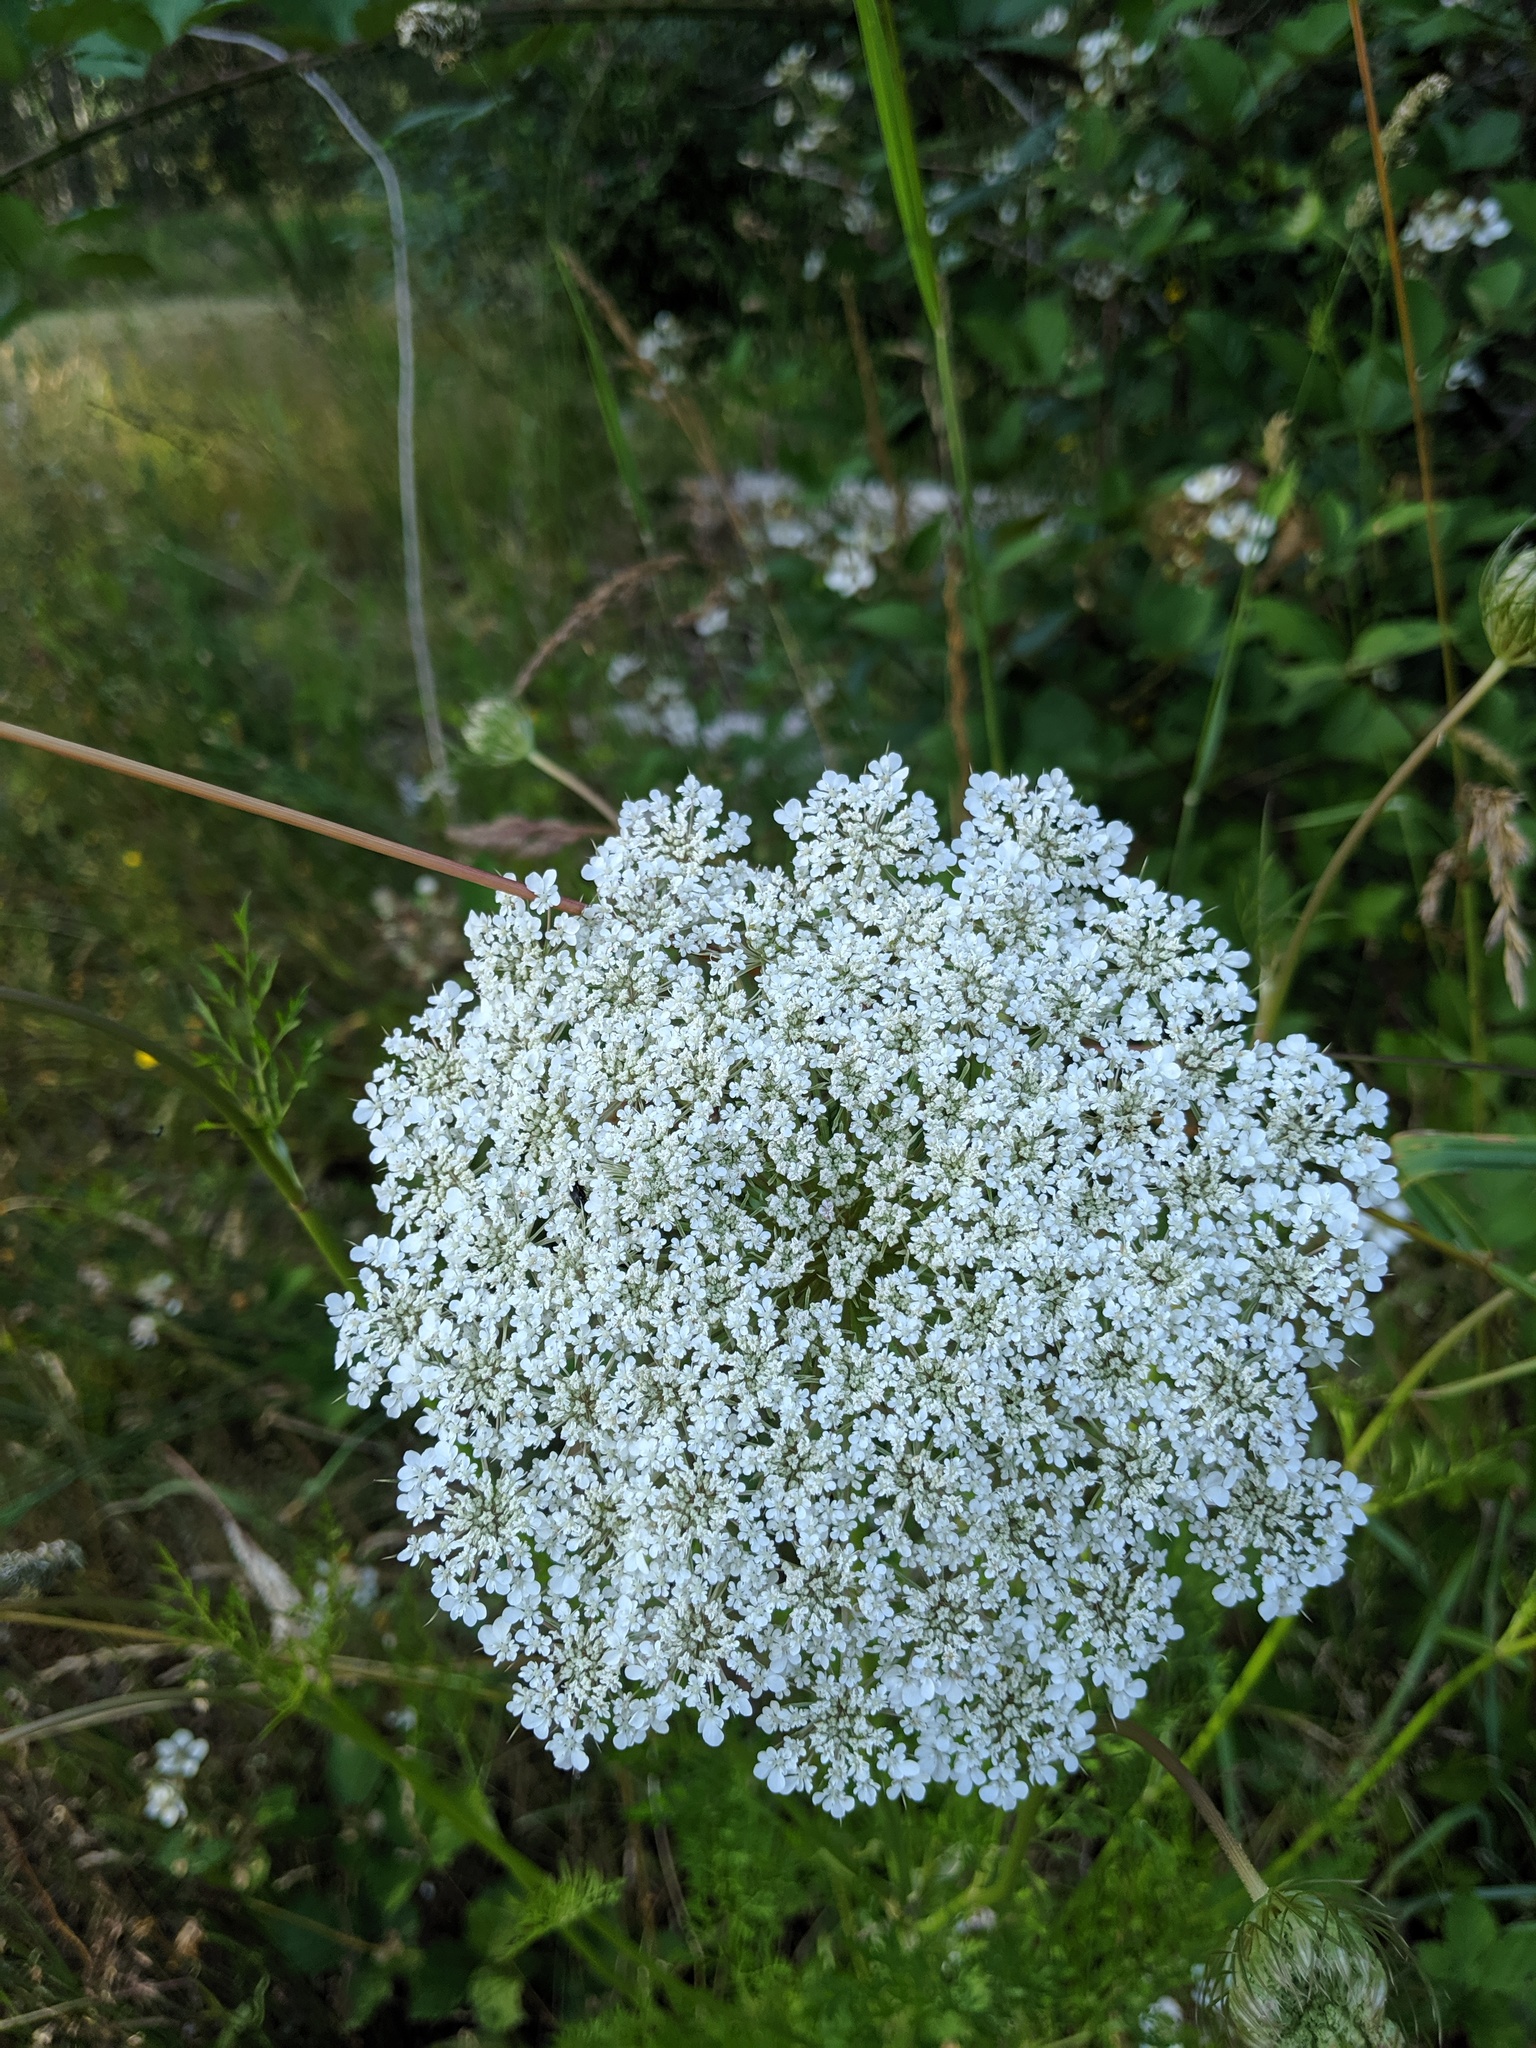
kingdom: Plantae
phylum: Tracheophyta
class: Magnoliopsida
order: Apiales
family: Apiaceae
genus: Daucus
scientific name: Daucus carota
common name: Wild carrot
